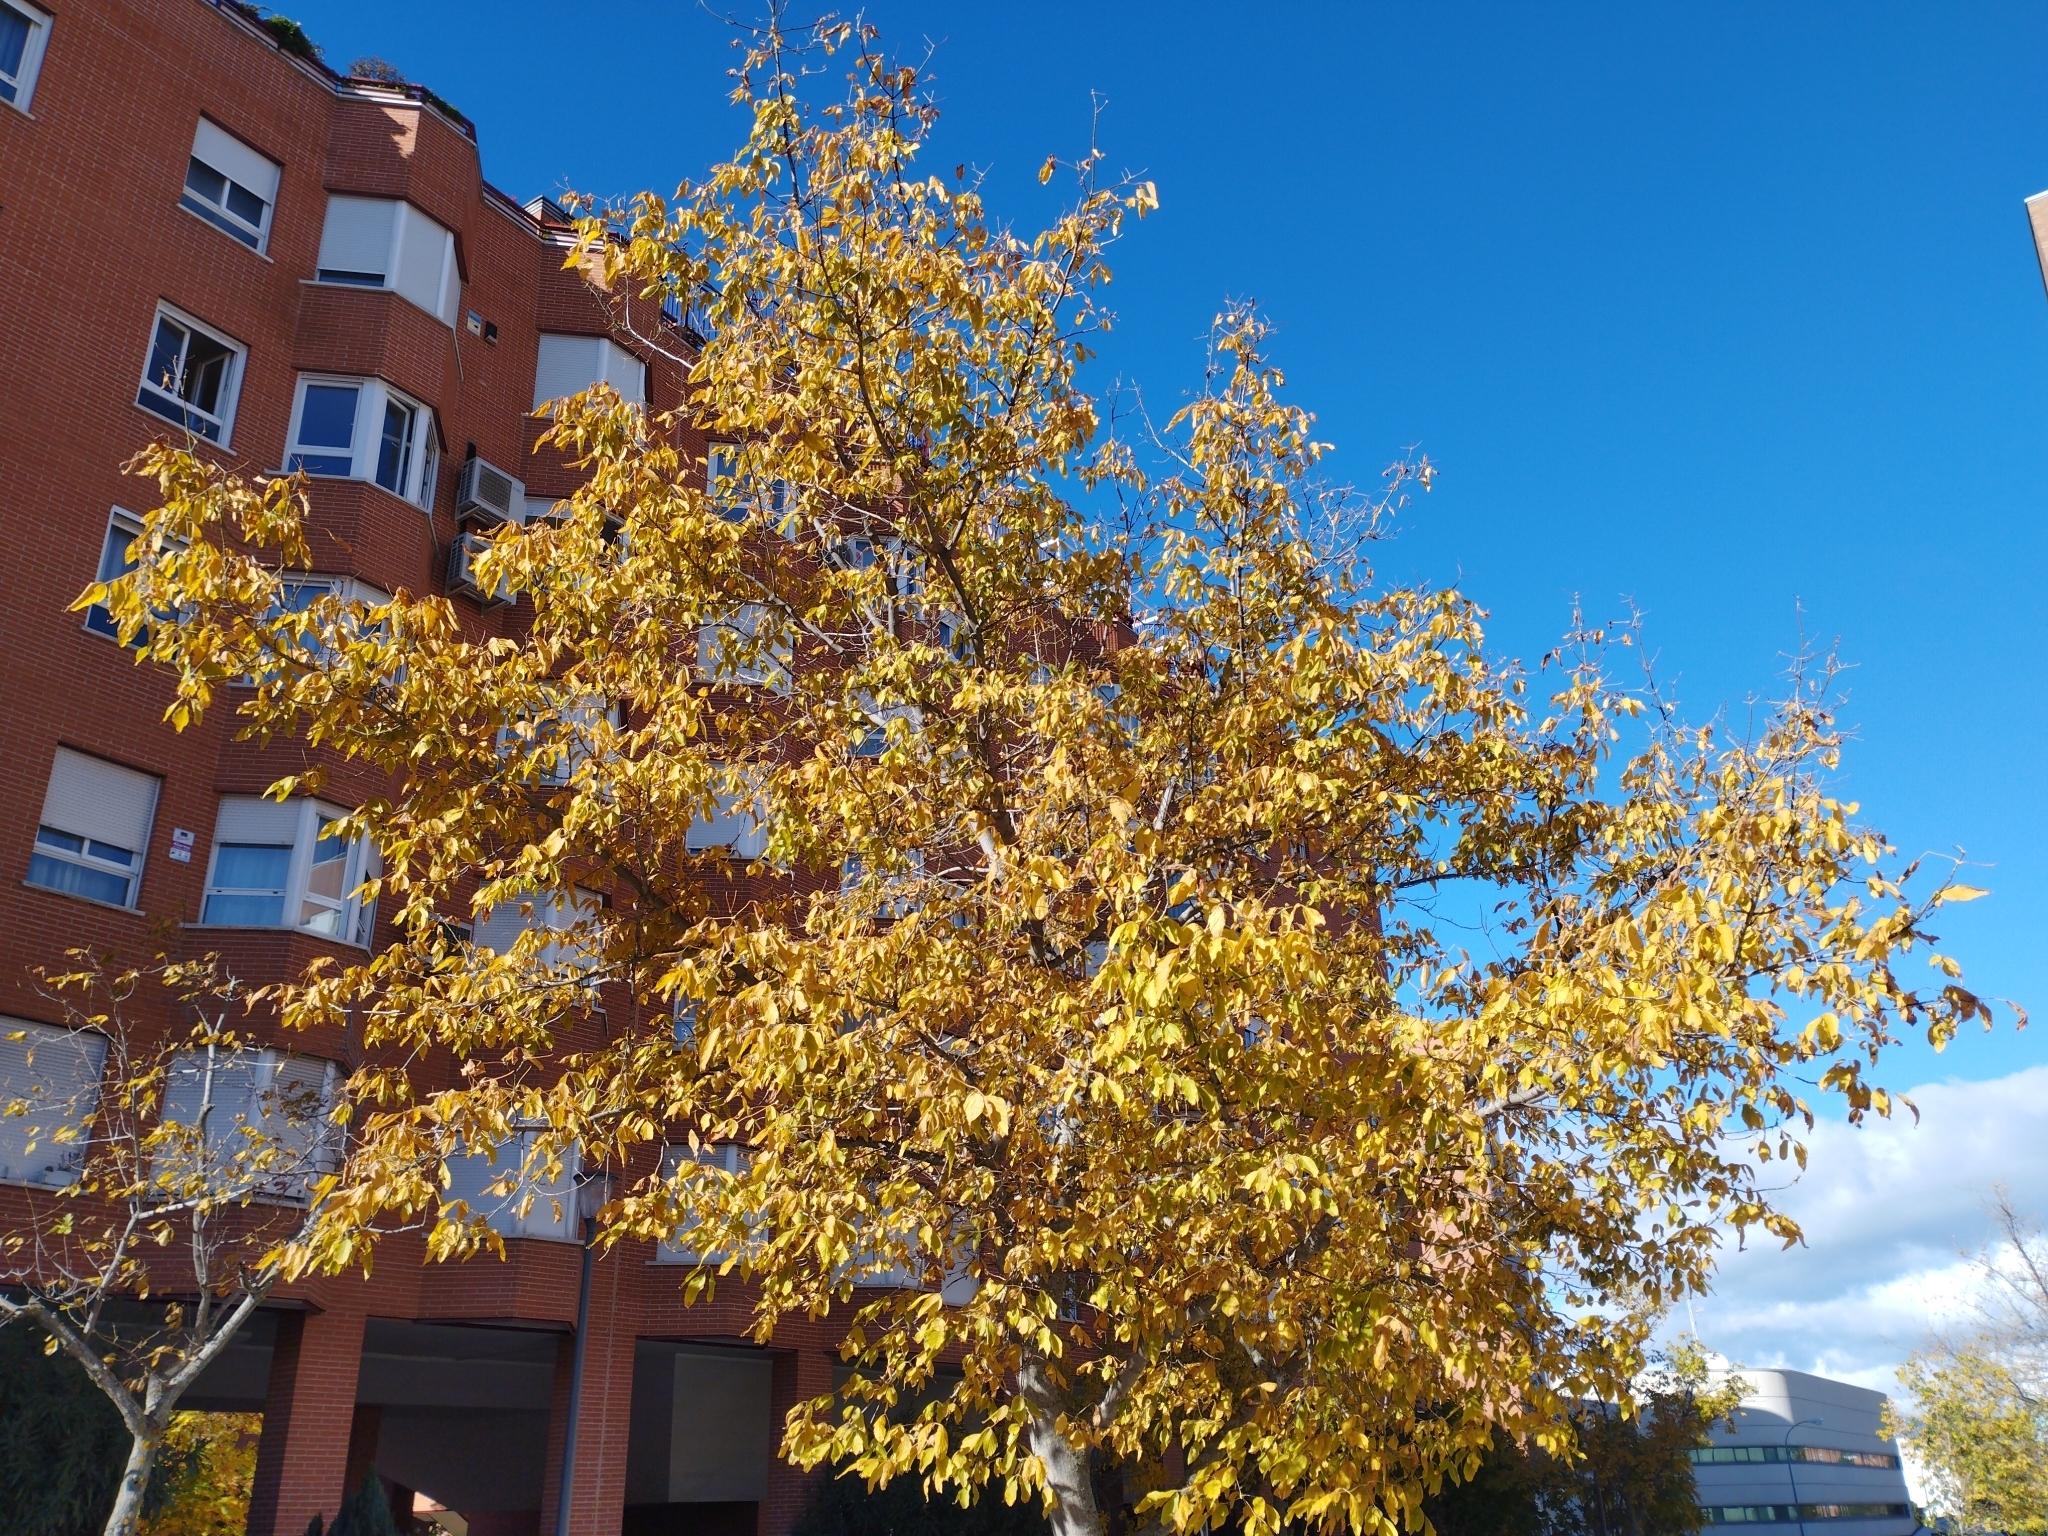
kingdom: Plantae
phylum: Tracheophyta
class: Magnoliopsida
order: Sapindales
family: Sapindaceae
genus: Acer
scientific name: Acer negundo
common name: Ashleaf maple
